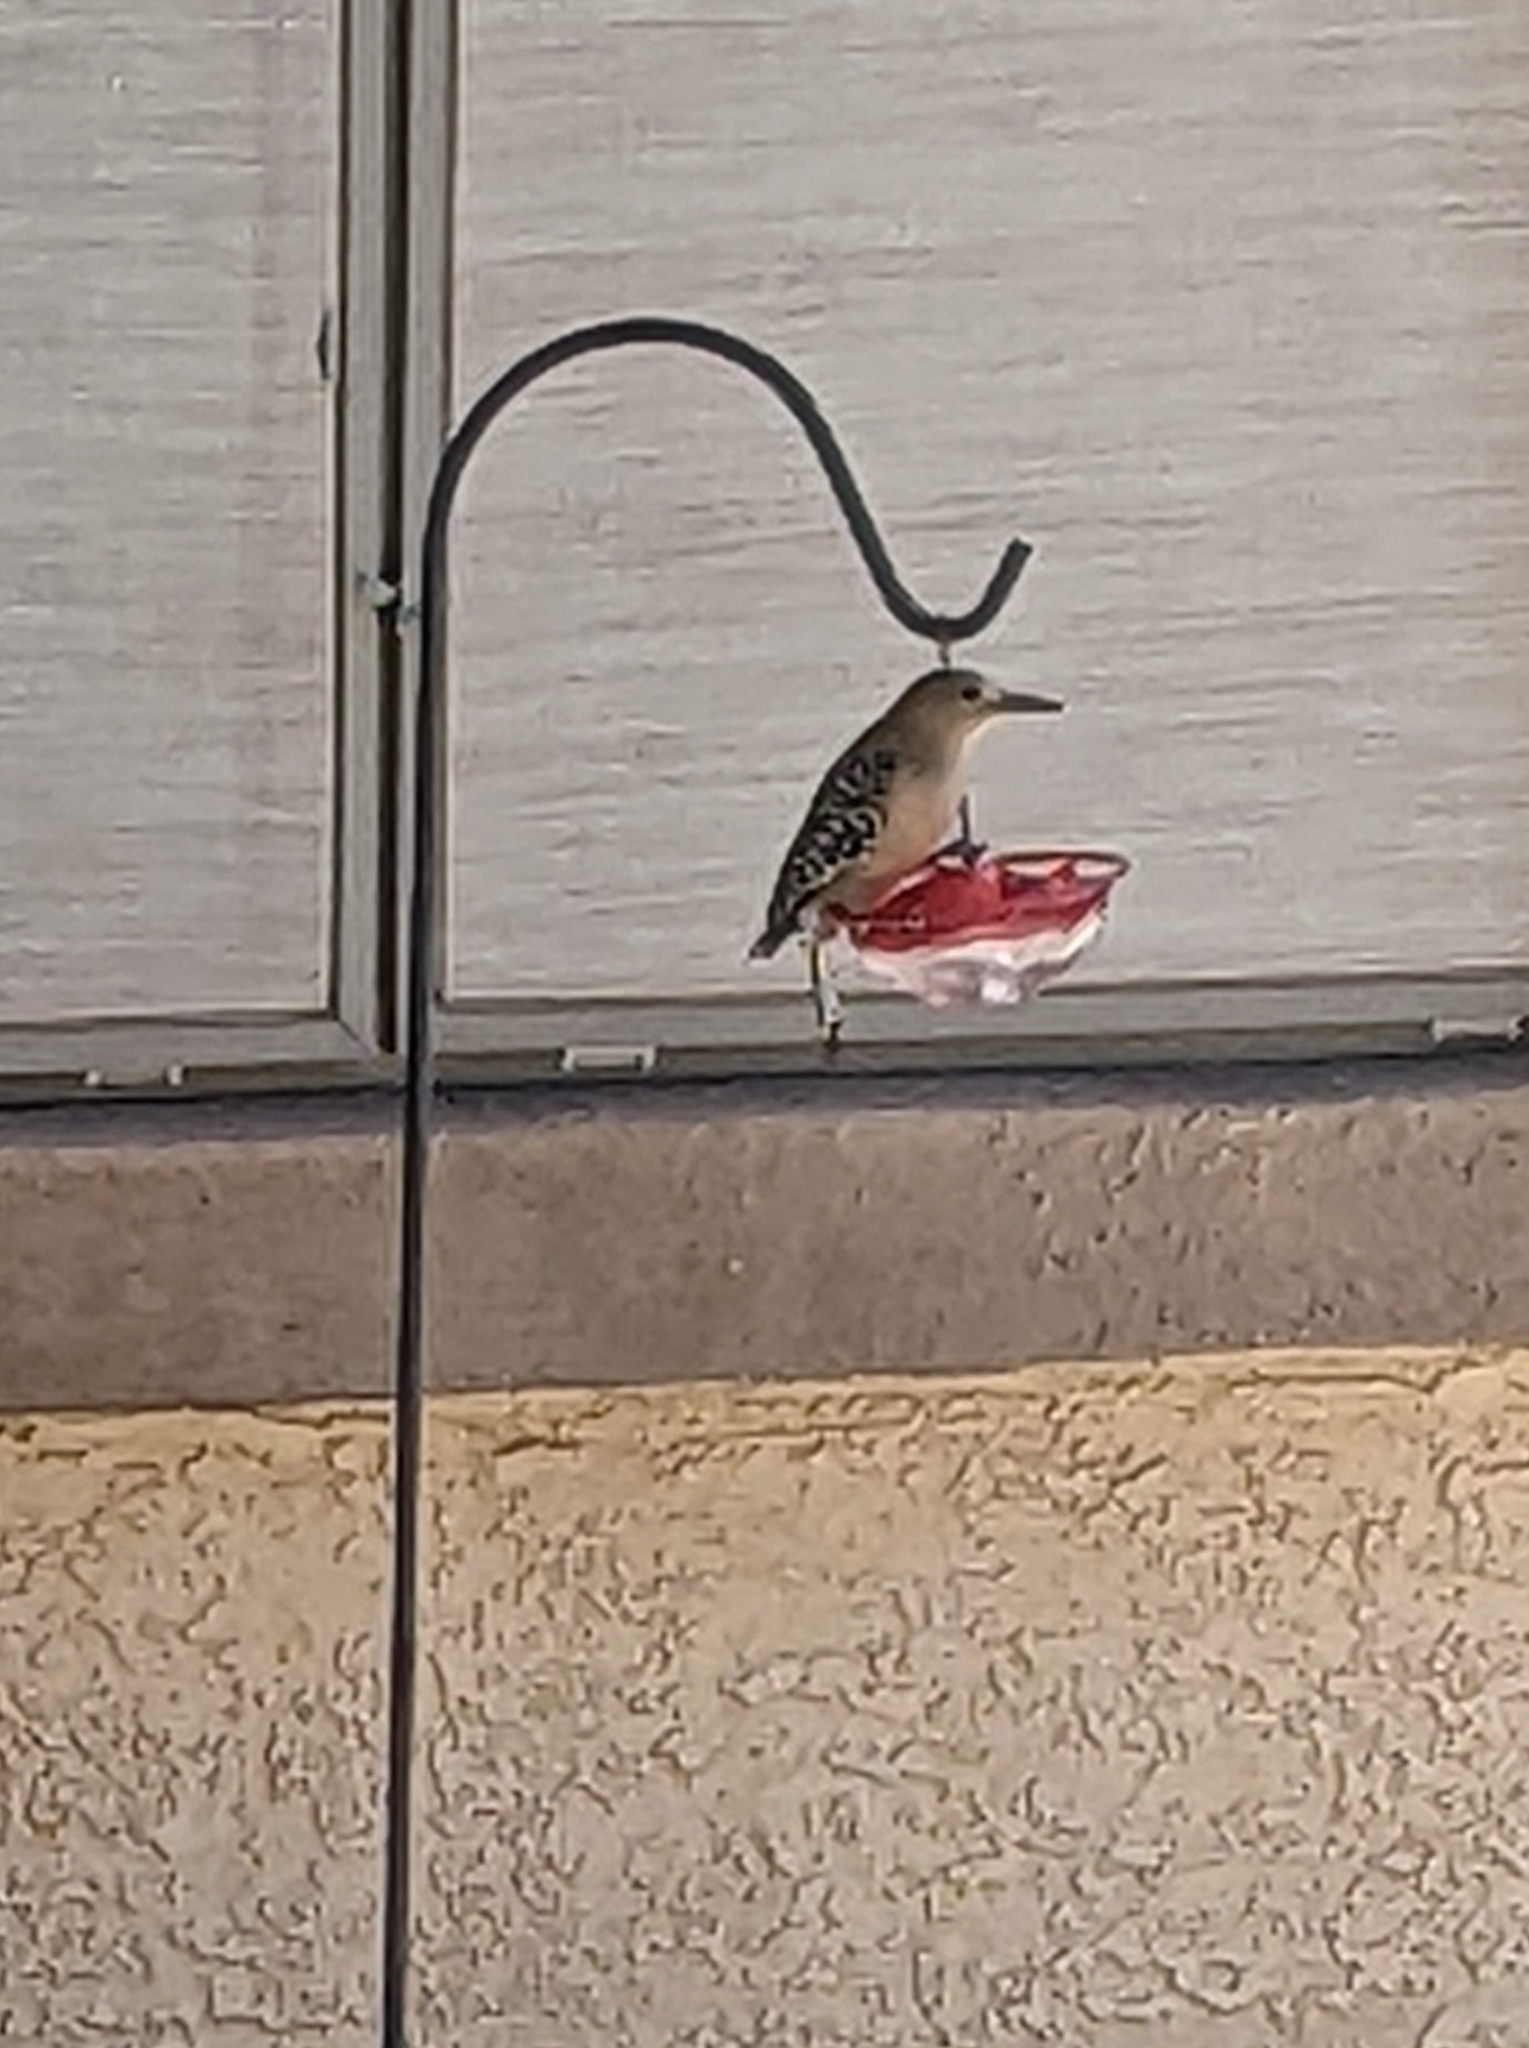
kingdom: Animalia
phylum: Chordata
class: Aves
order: Piciformes
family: Picidae
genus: Melanerpes
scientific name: Melanerpes uropygialis
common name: Gila woodpecker
